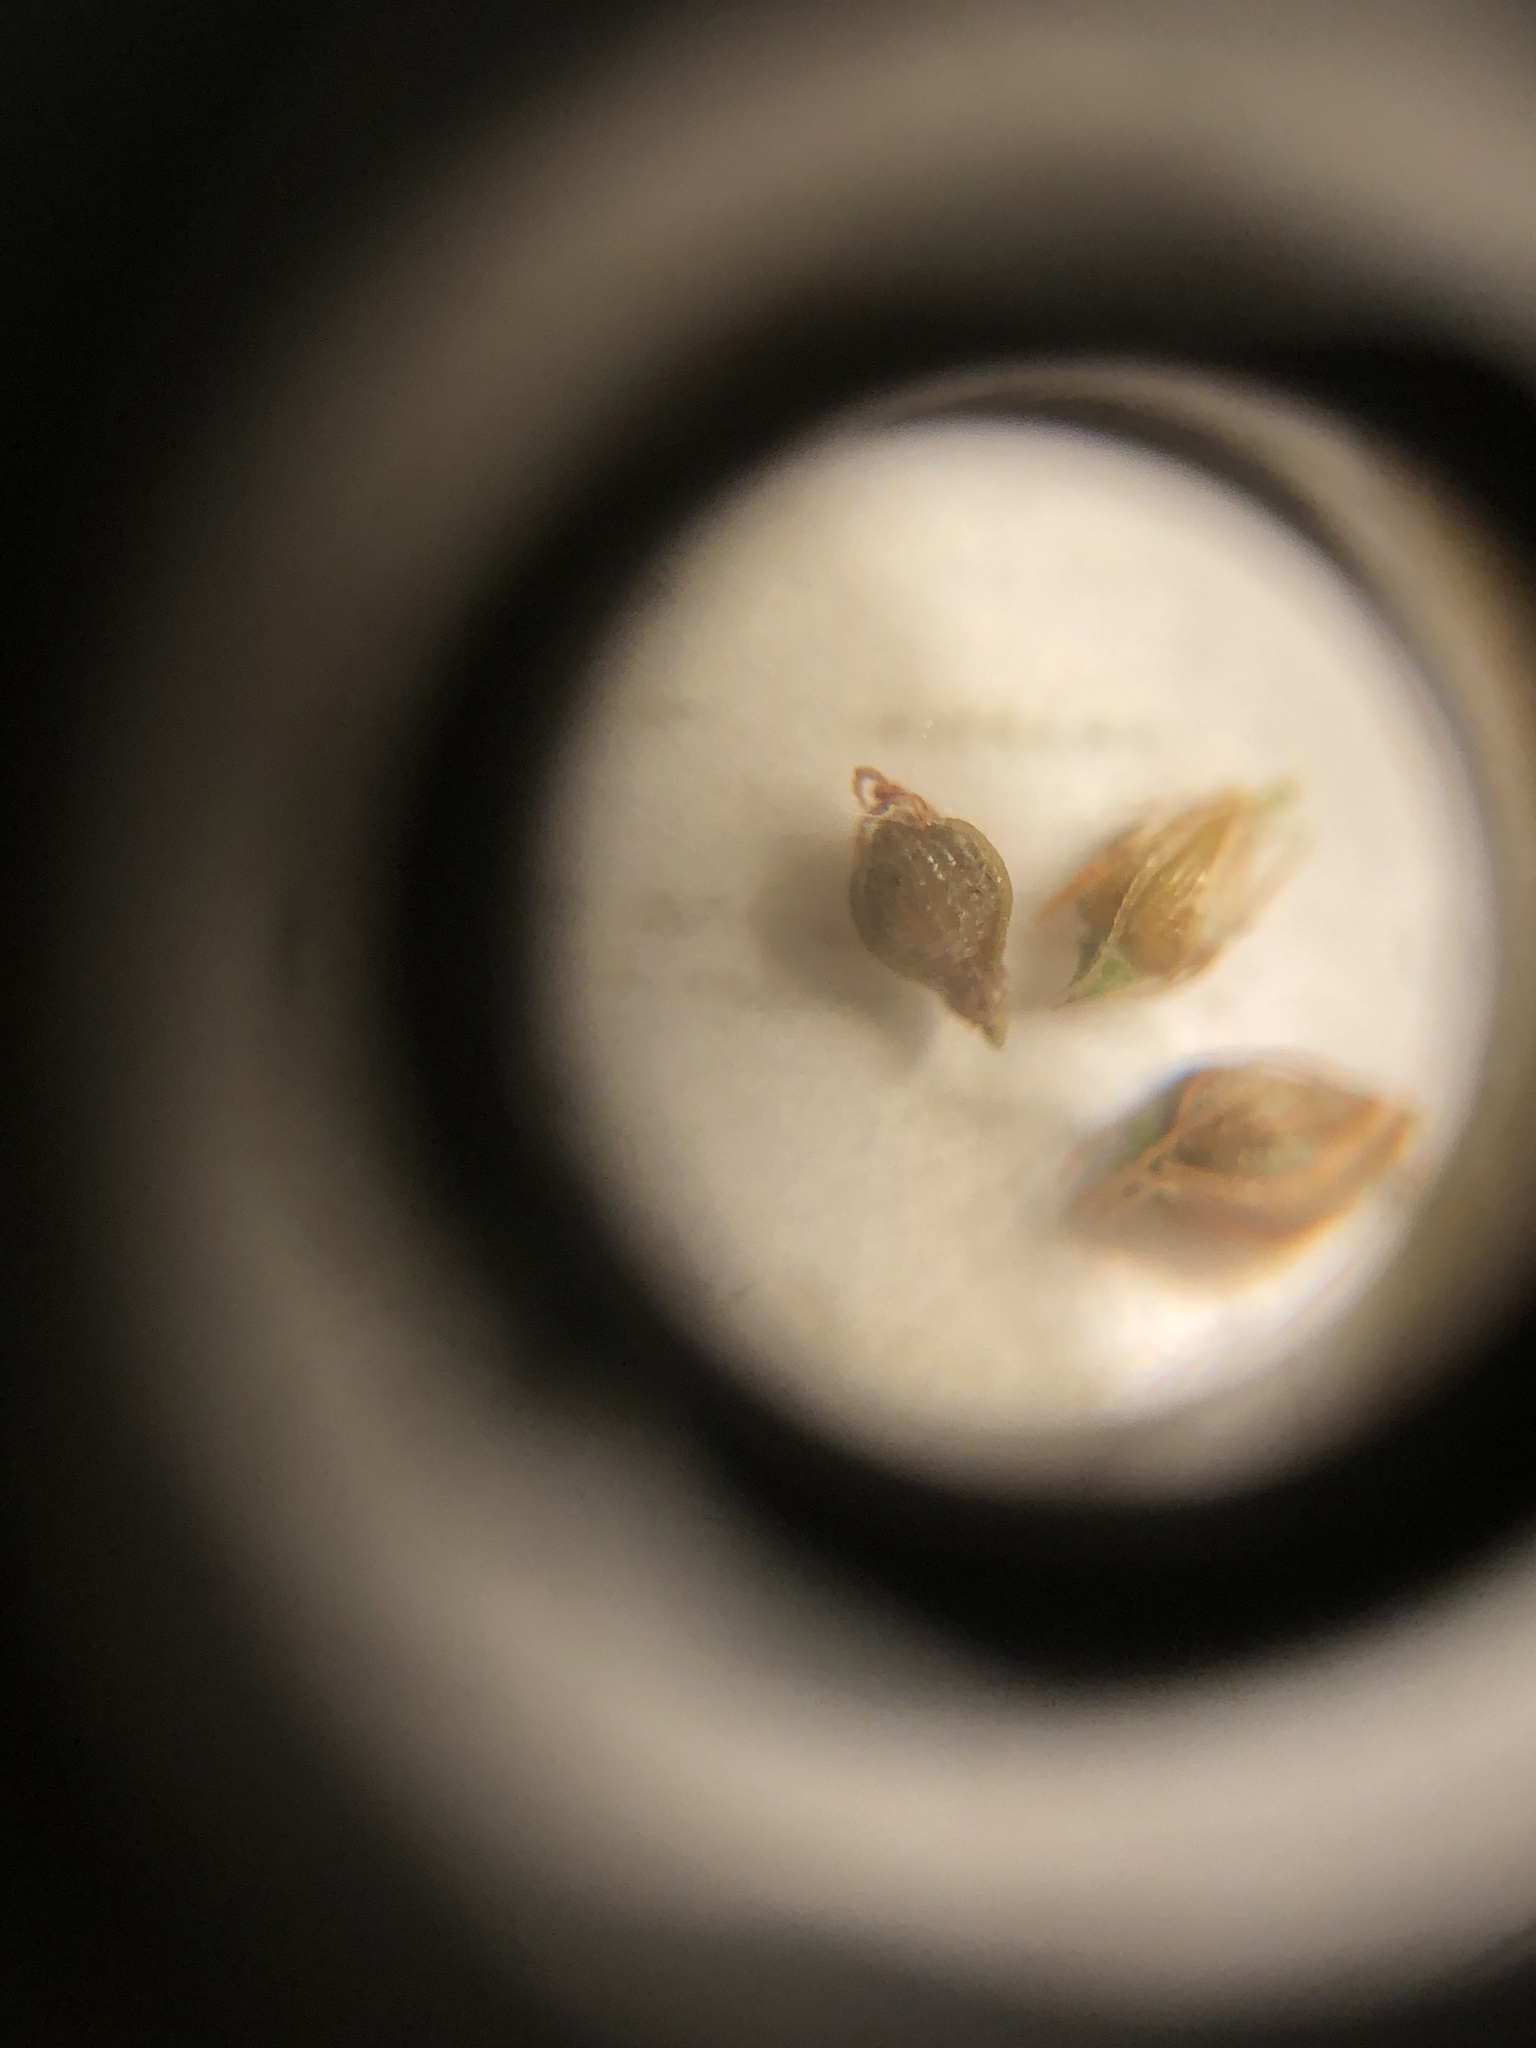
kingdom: Plantae
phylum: Tracheophyta
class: Liliopsida
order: Poales
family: Cyperaceae
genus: Eleocharis
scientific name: Eleocharis tortilis
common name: Twisted spike sedge
